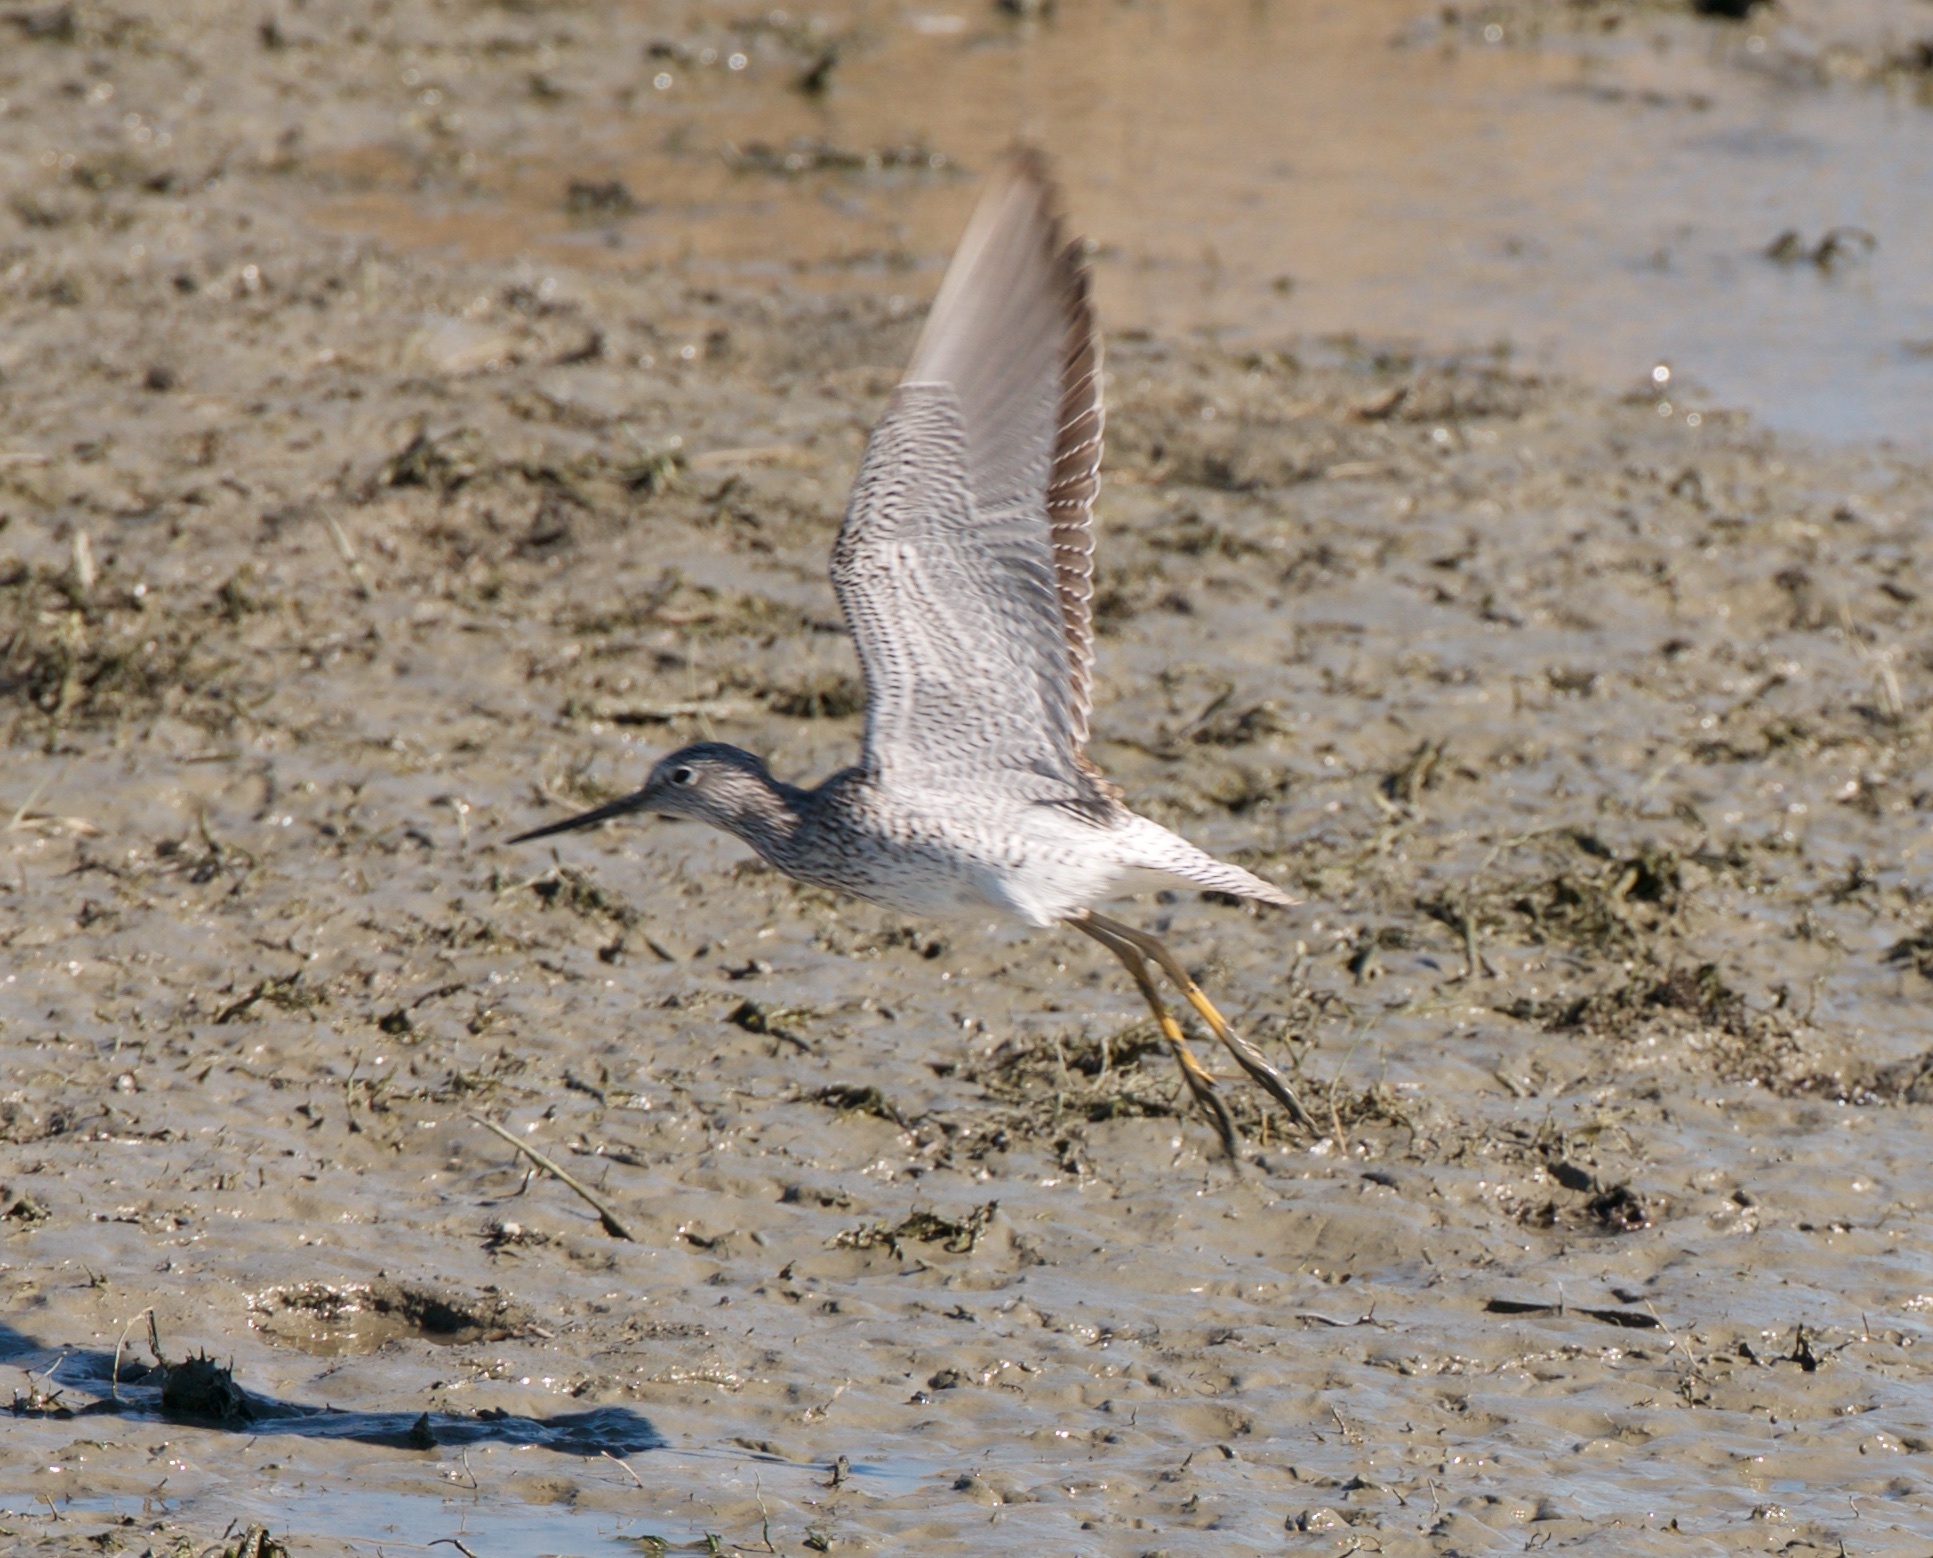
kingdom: Animalia
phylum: Chordata
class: Aves
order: Charadriiformes
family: Scolopacidae
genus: Tringa
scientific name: Tringa melanoleuca
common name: Greater yellowlegs
